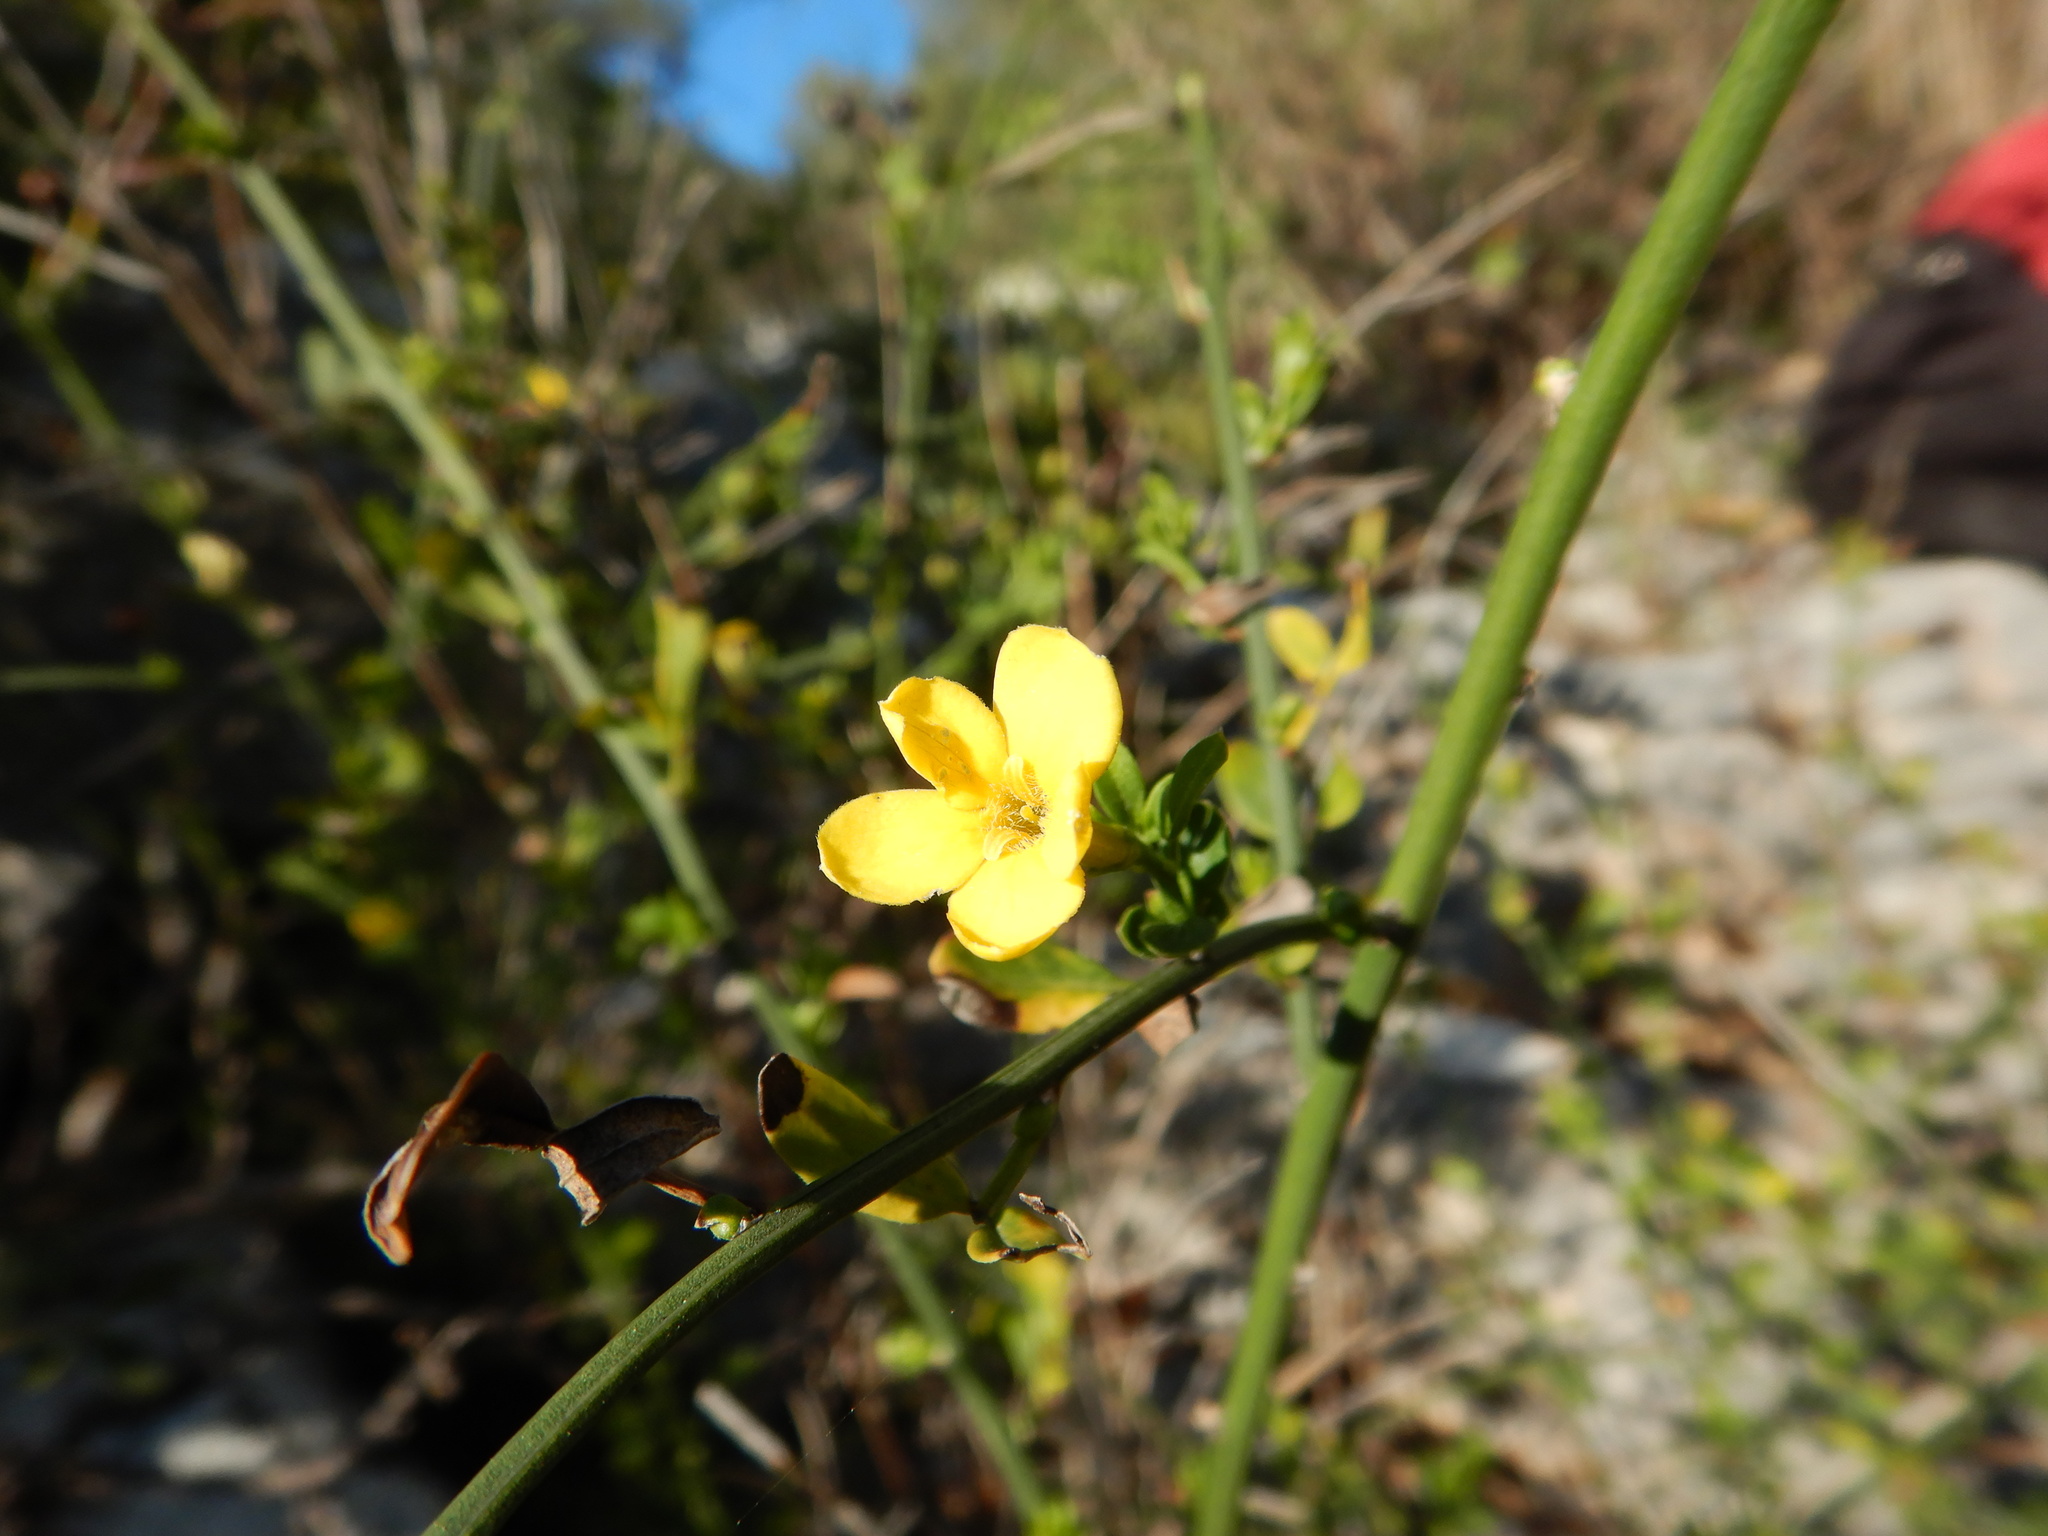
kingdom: Plantae
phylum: Tracheophyta
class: Magnoliopsida
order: Lamiales
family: Oleaceae
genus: Chrysojasminum
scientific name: Chrysojasminum fruticans
